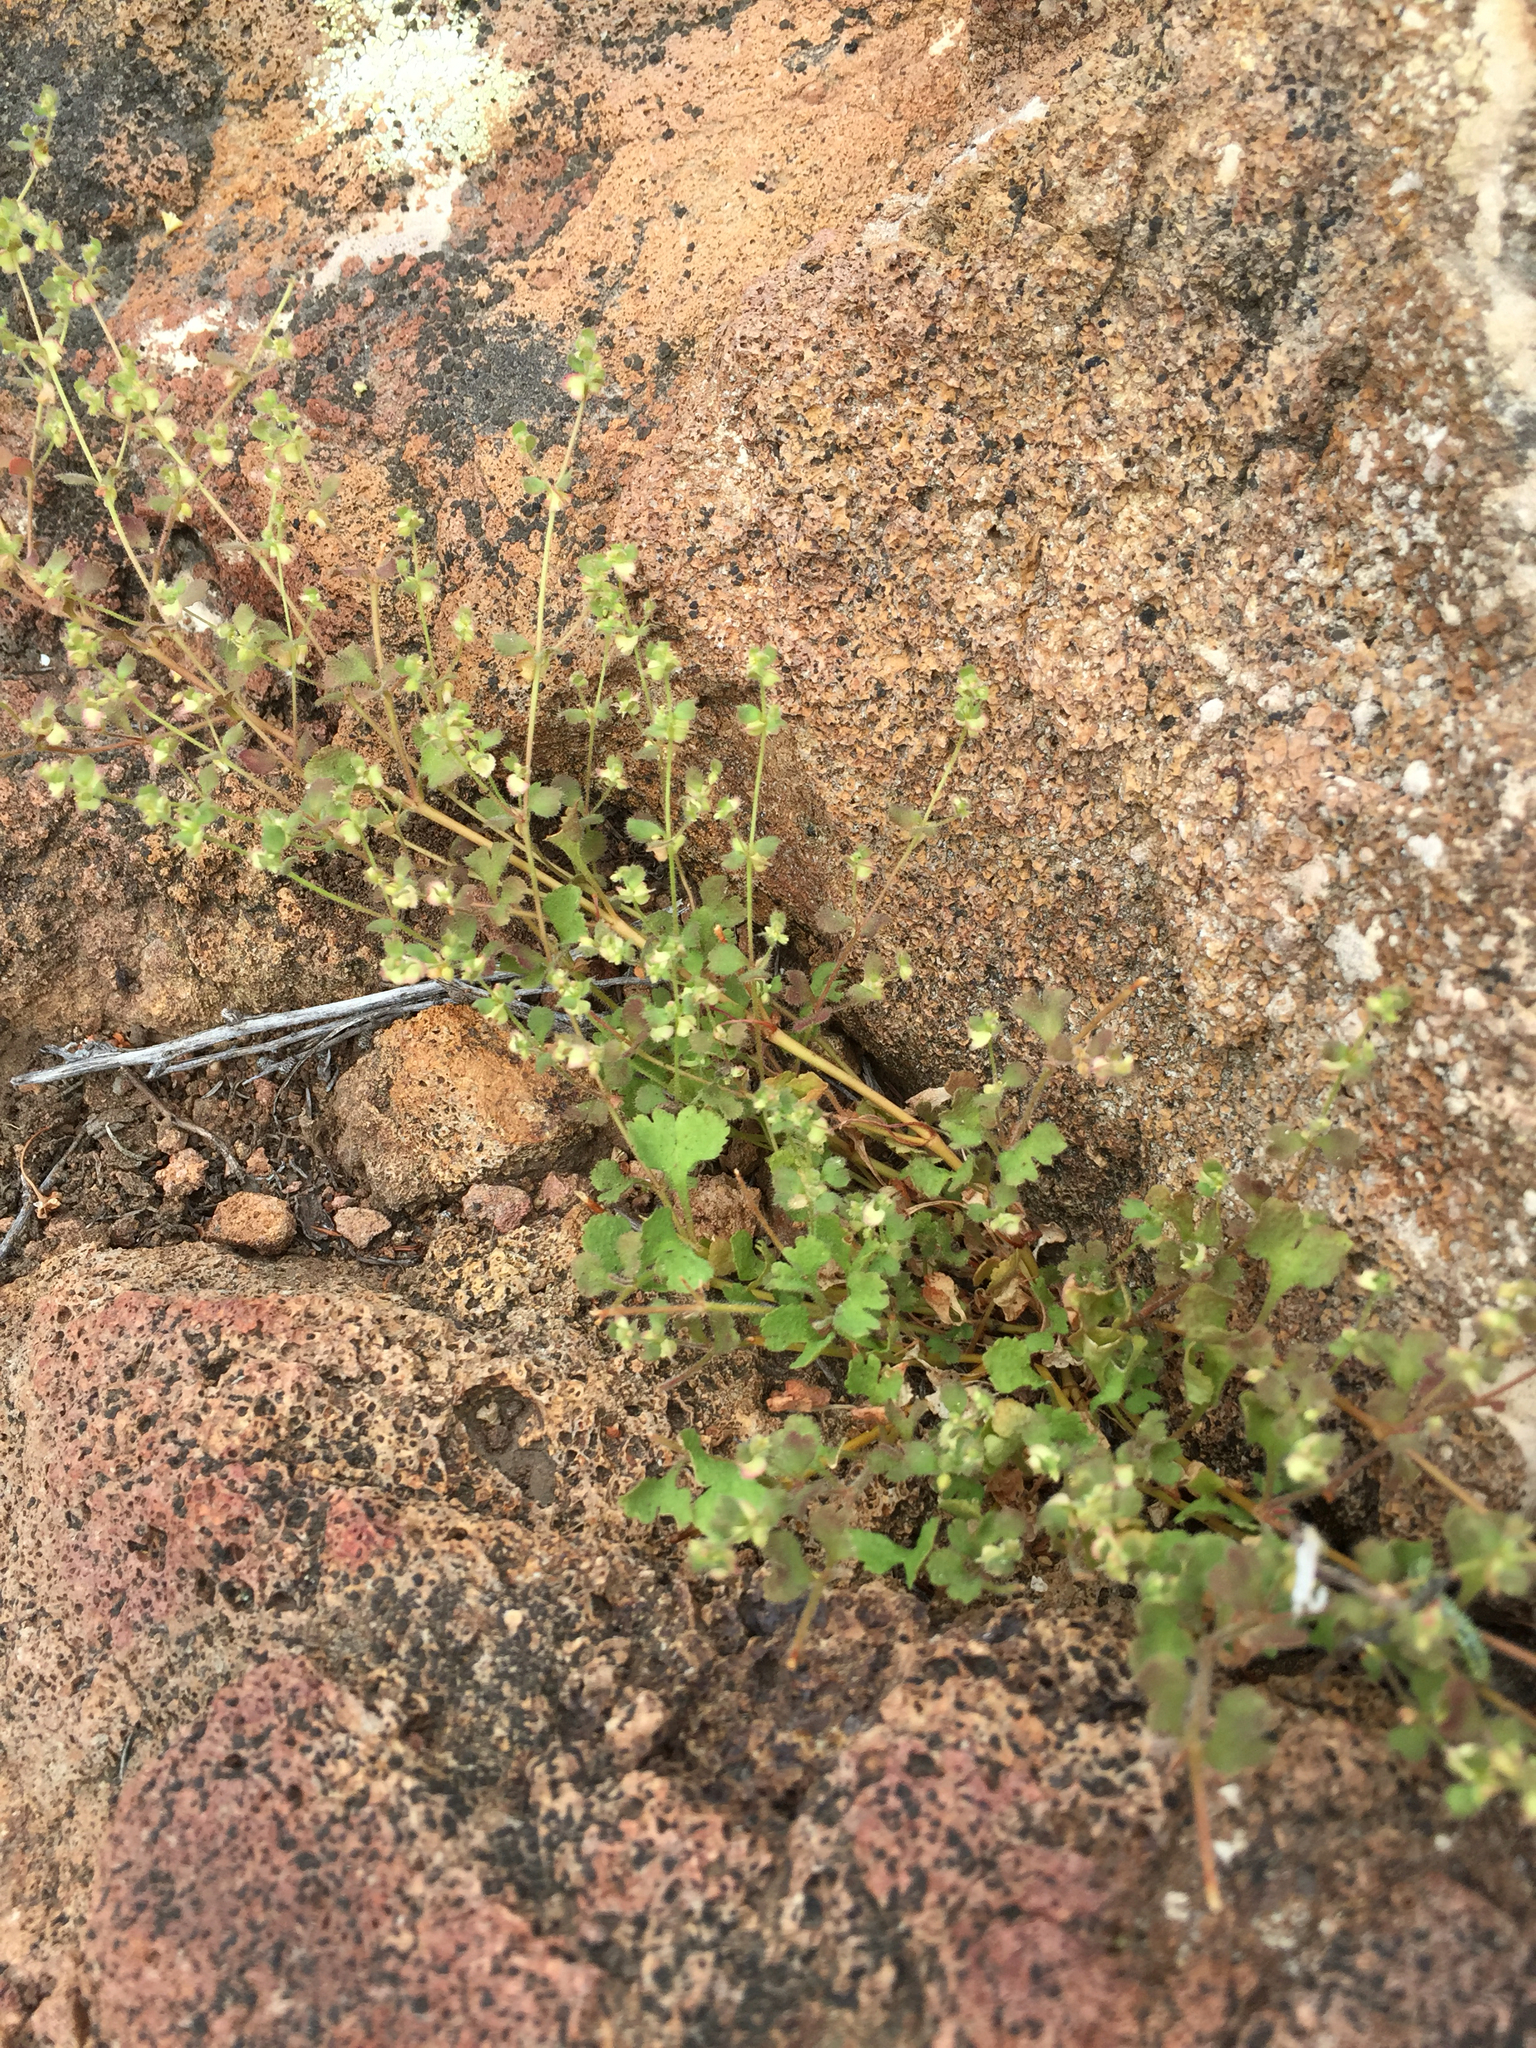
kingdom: Plantae
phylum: Tracheophyta
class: Magnoliopsida
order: Caryophyllales
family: Polygonaceae
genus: Pterostegia
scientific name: Pterostegia drymarioides
